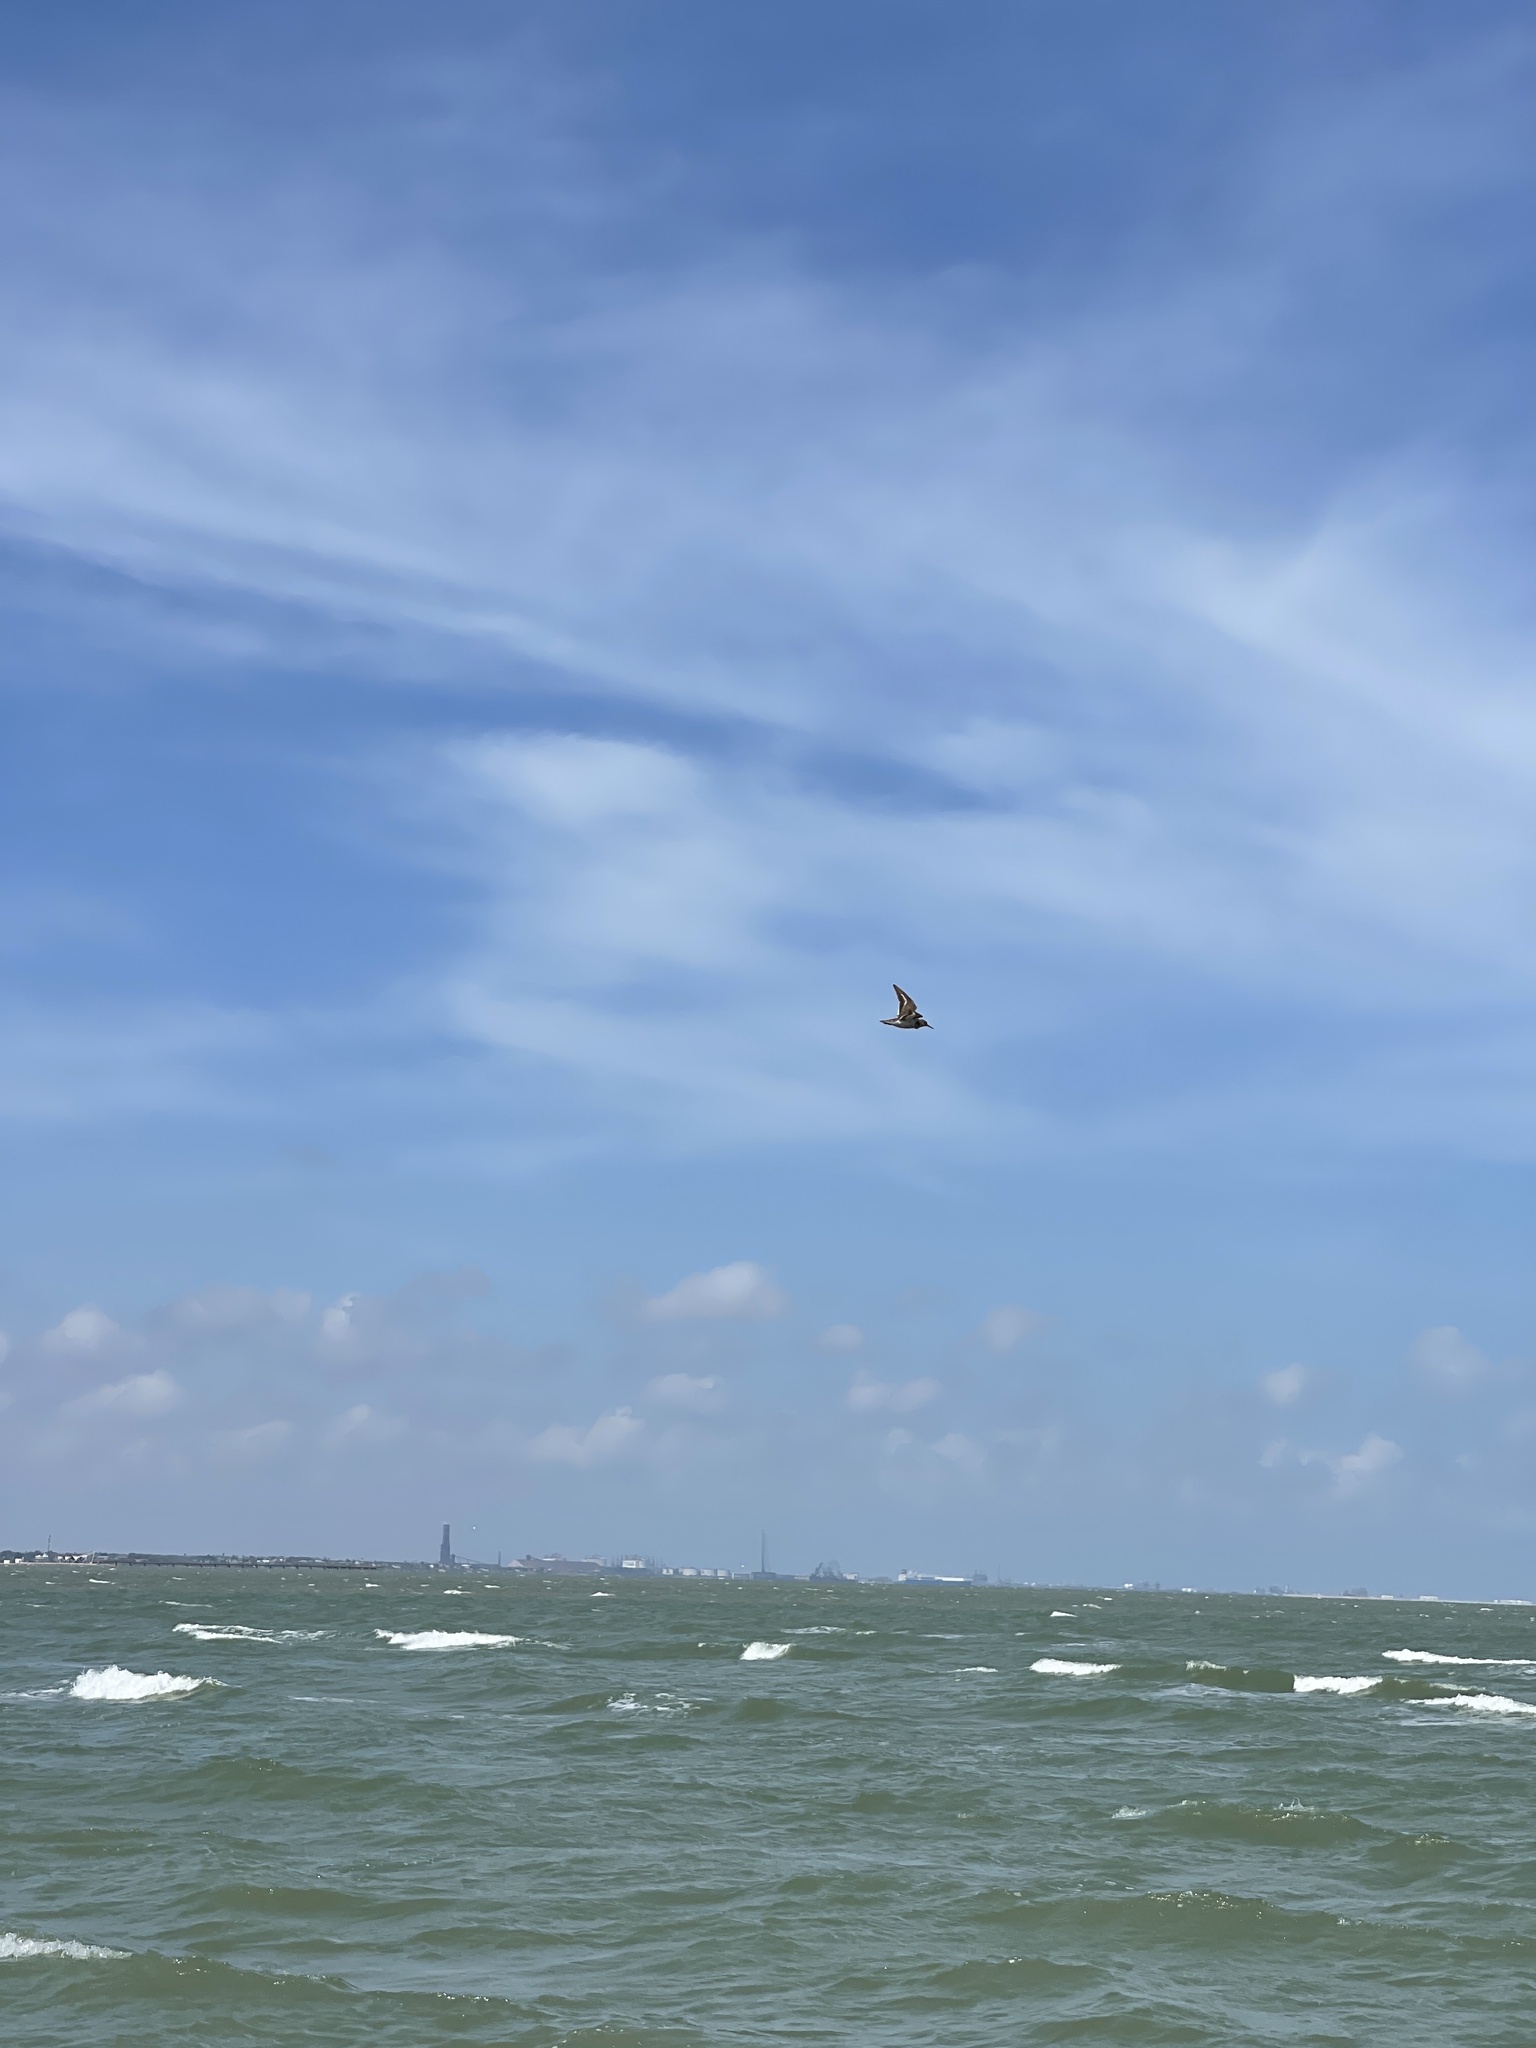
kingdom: Animalia
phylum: Chordata
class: Aves
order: Charadriiformes
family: Scolopacidae
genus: Actitis
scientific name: Actitis macularius
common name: Spotted sandpiper
